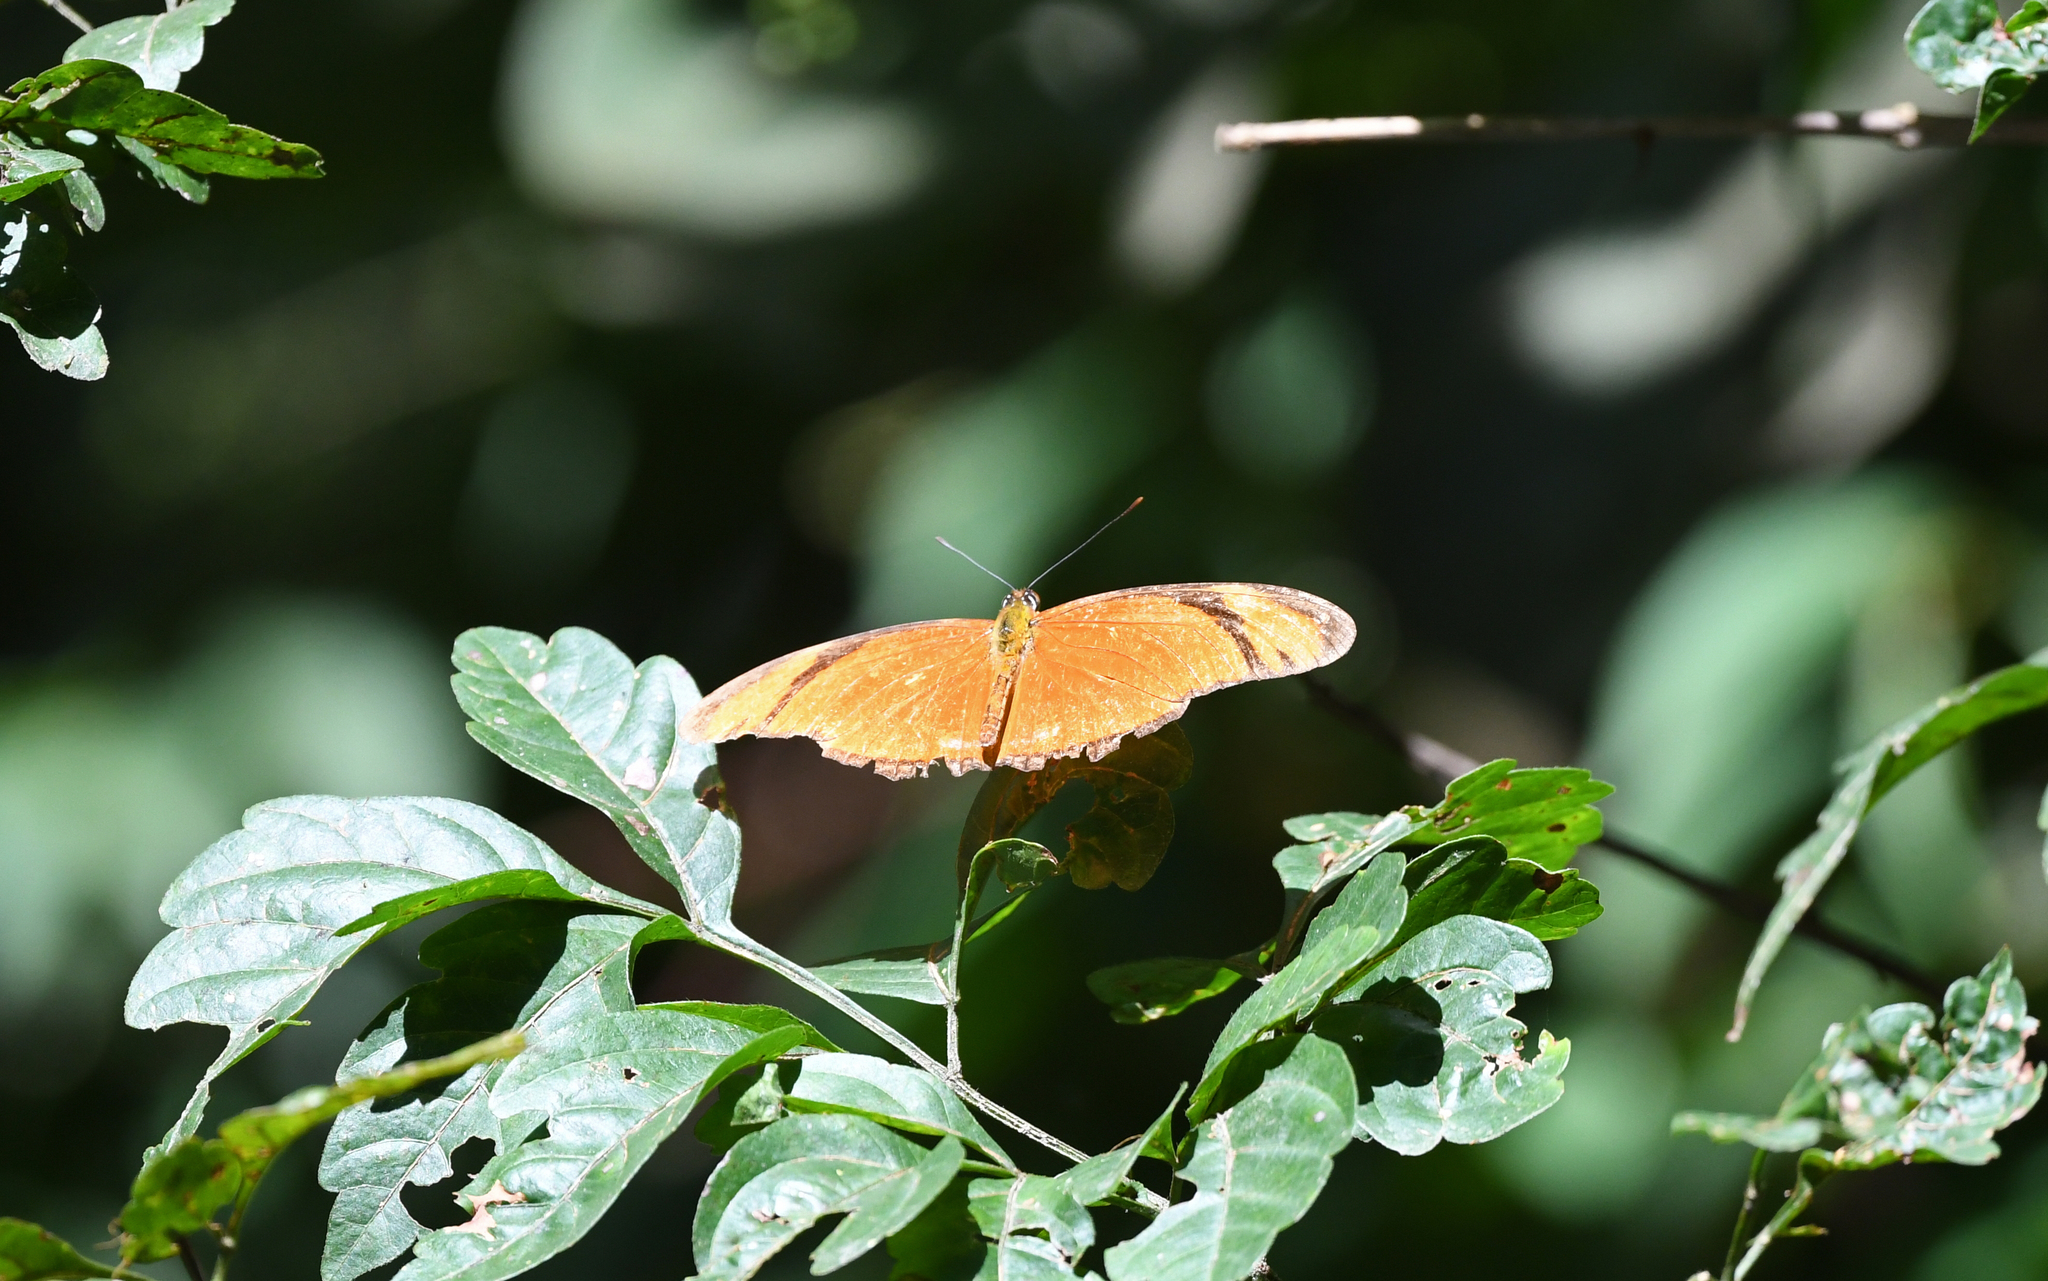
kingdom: Animalia
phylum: Arthropoda
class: Insecta
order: Lepidoptera
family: Nymphalidae
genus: Dryas
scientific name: Dryas iulia
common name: Flambeau
